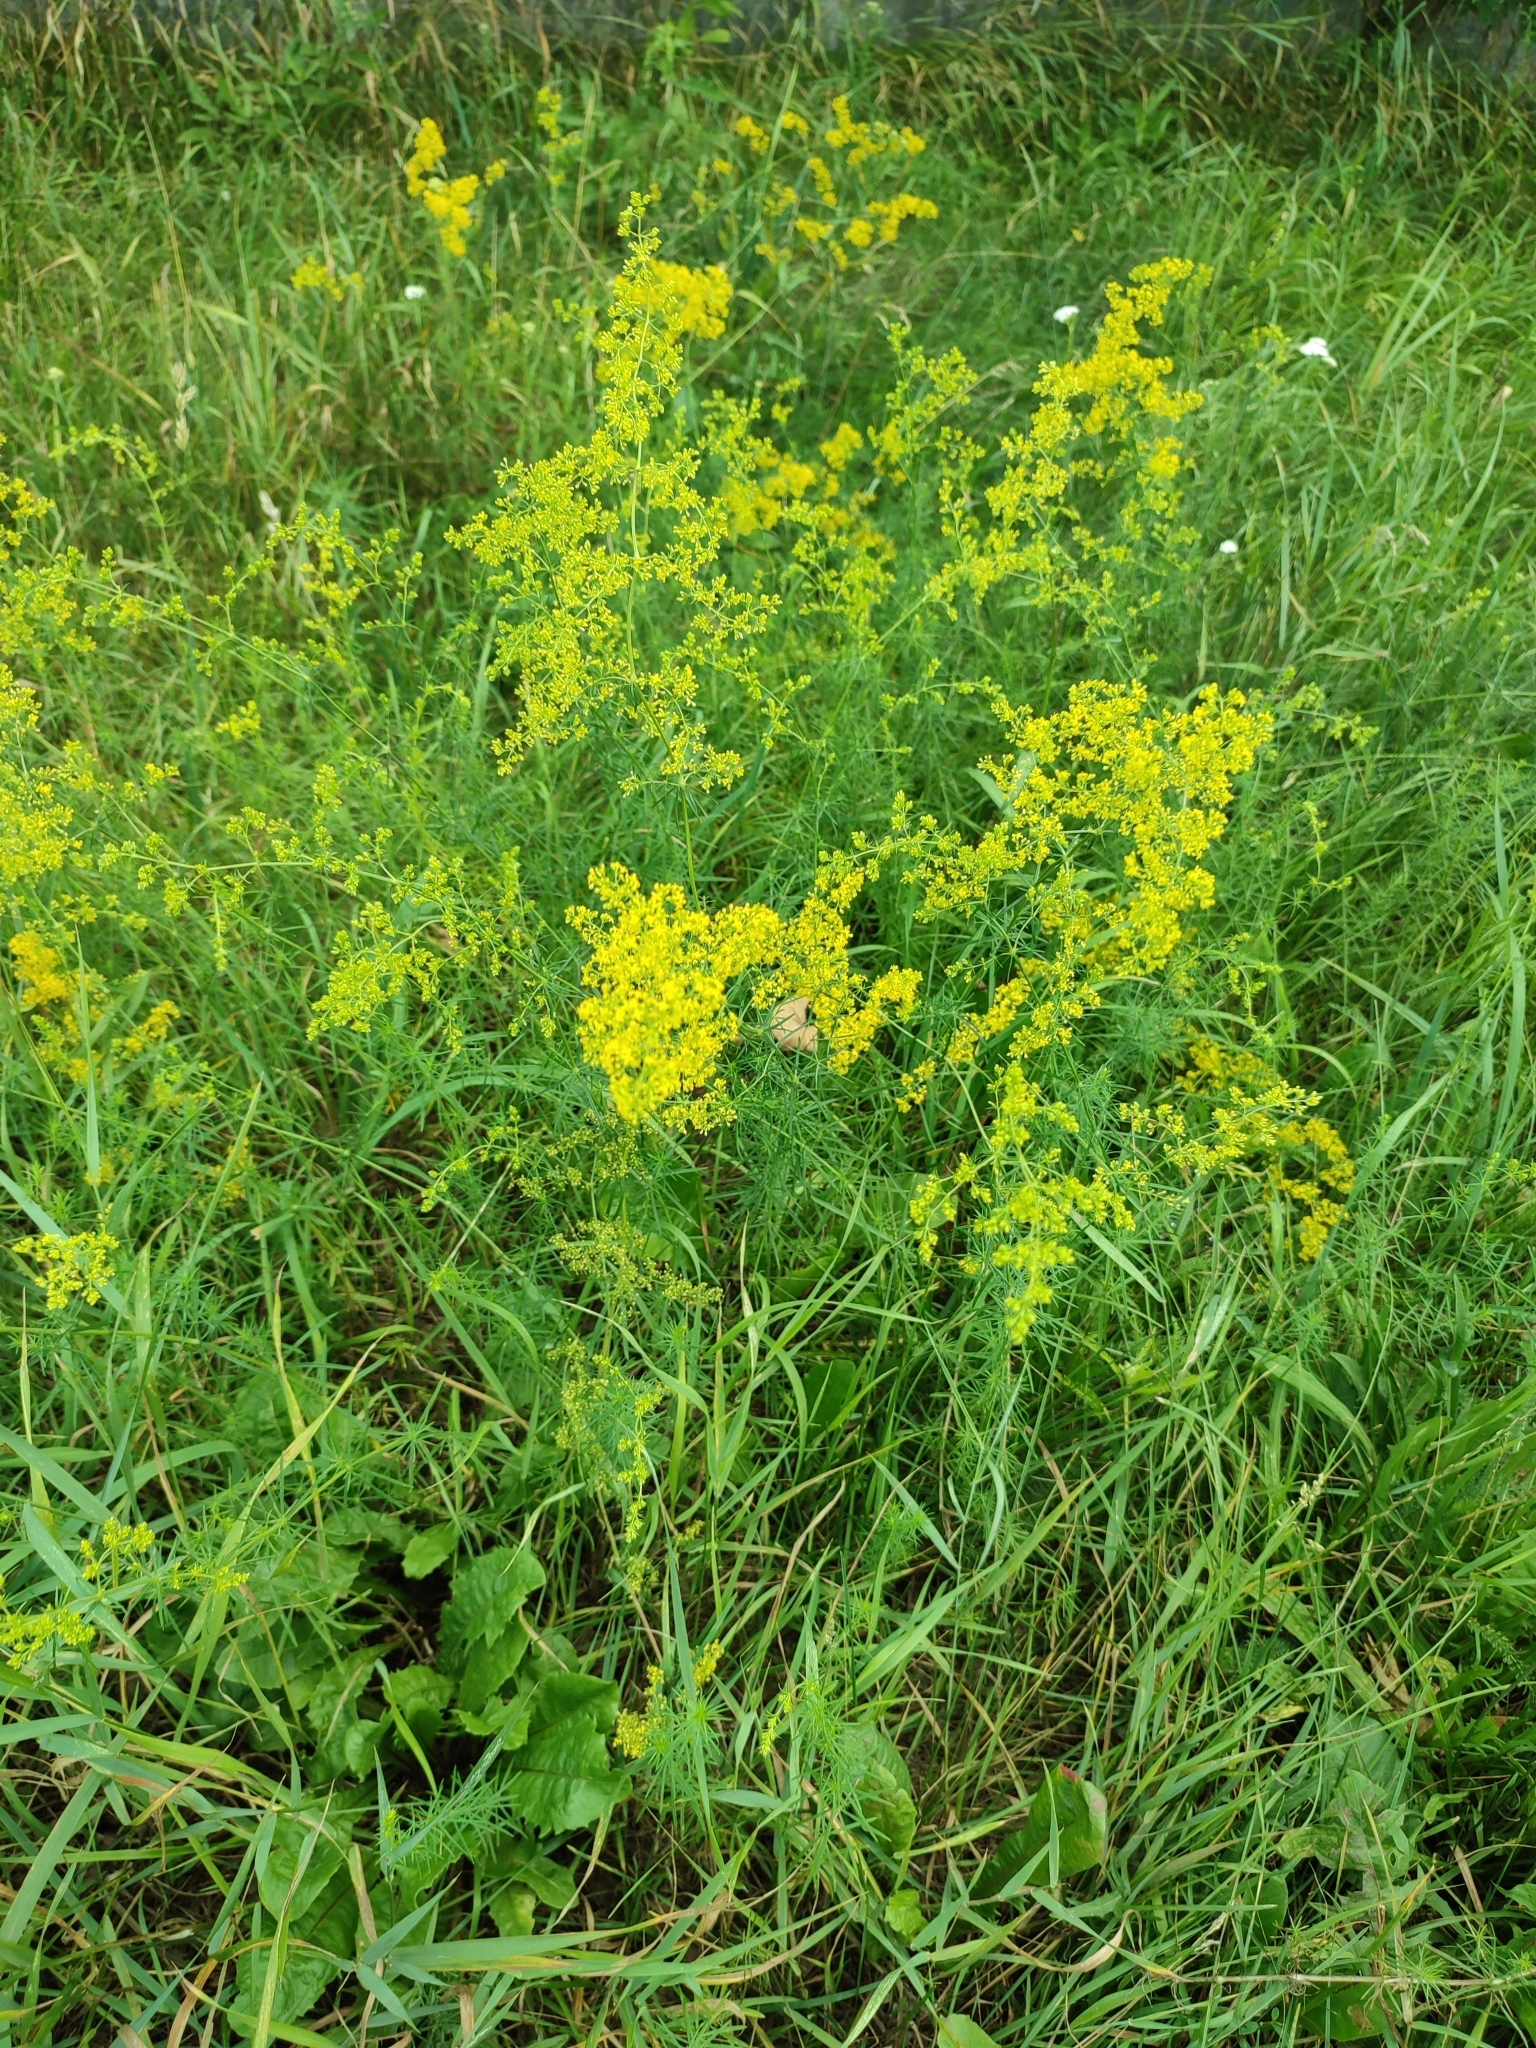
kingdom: Plantae
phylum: Tracheophyta
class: Magnoliopsida
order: Gentianales
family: Rubiaceae
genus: Galium
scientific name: Galium verum
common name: Lady's bedstraw
